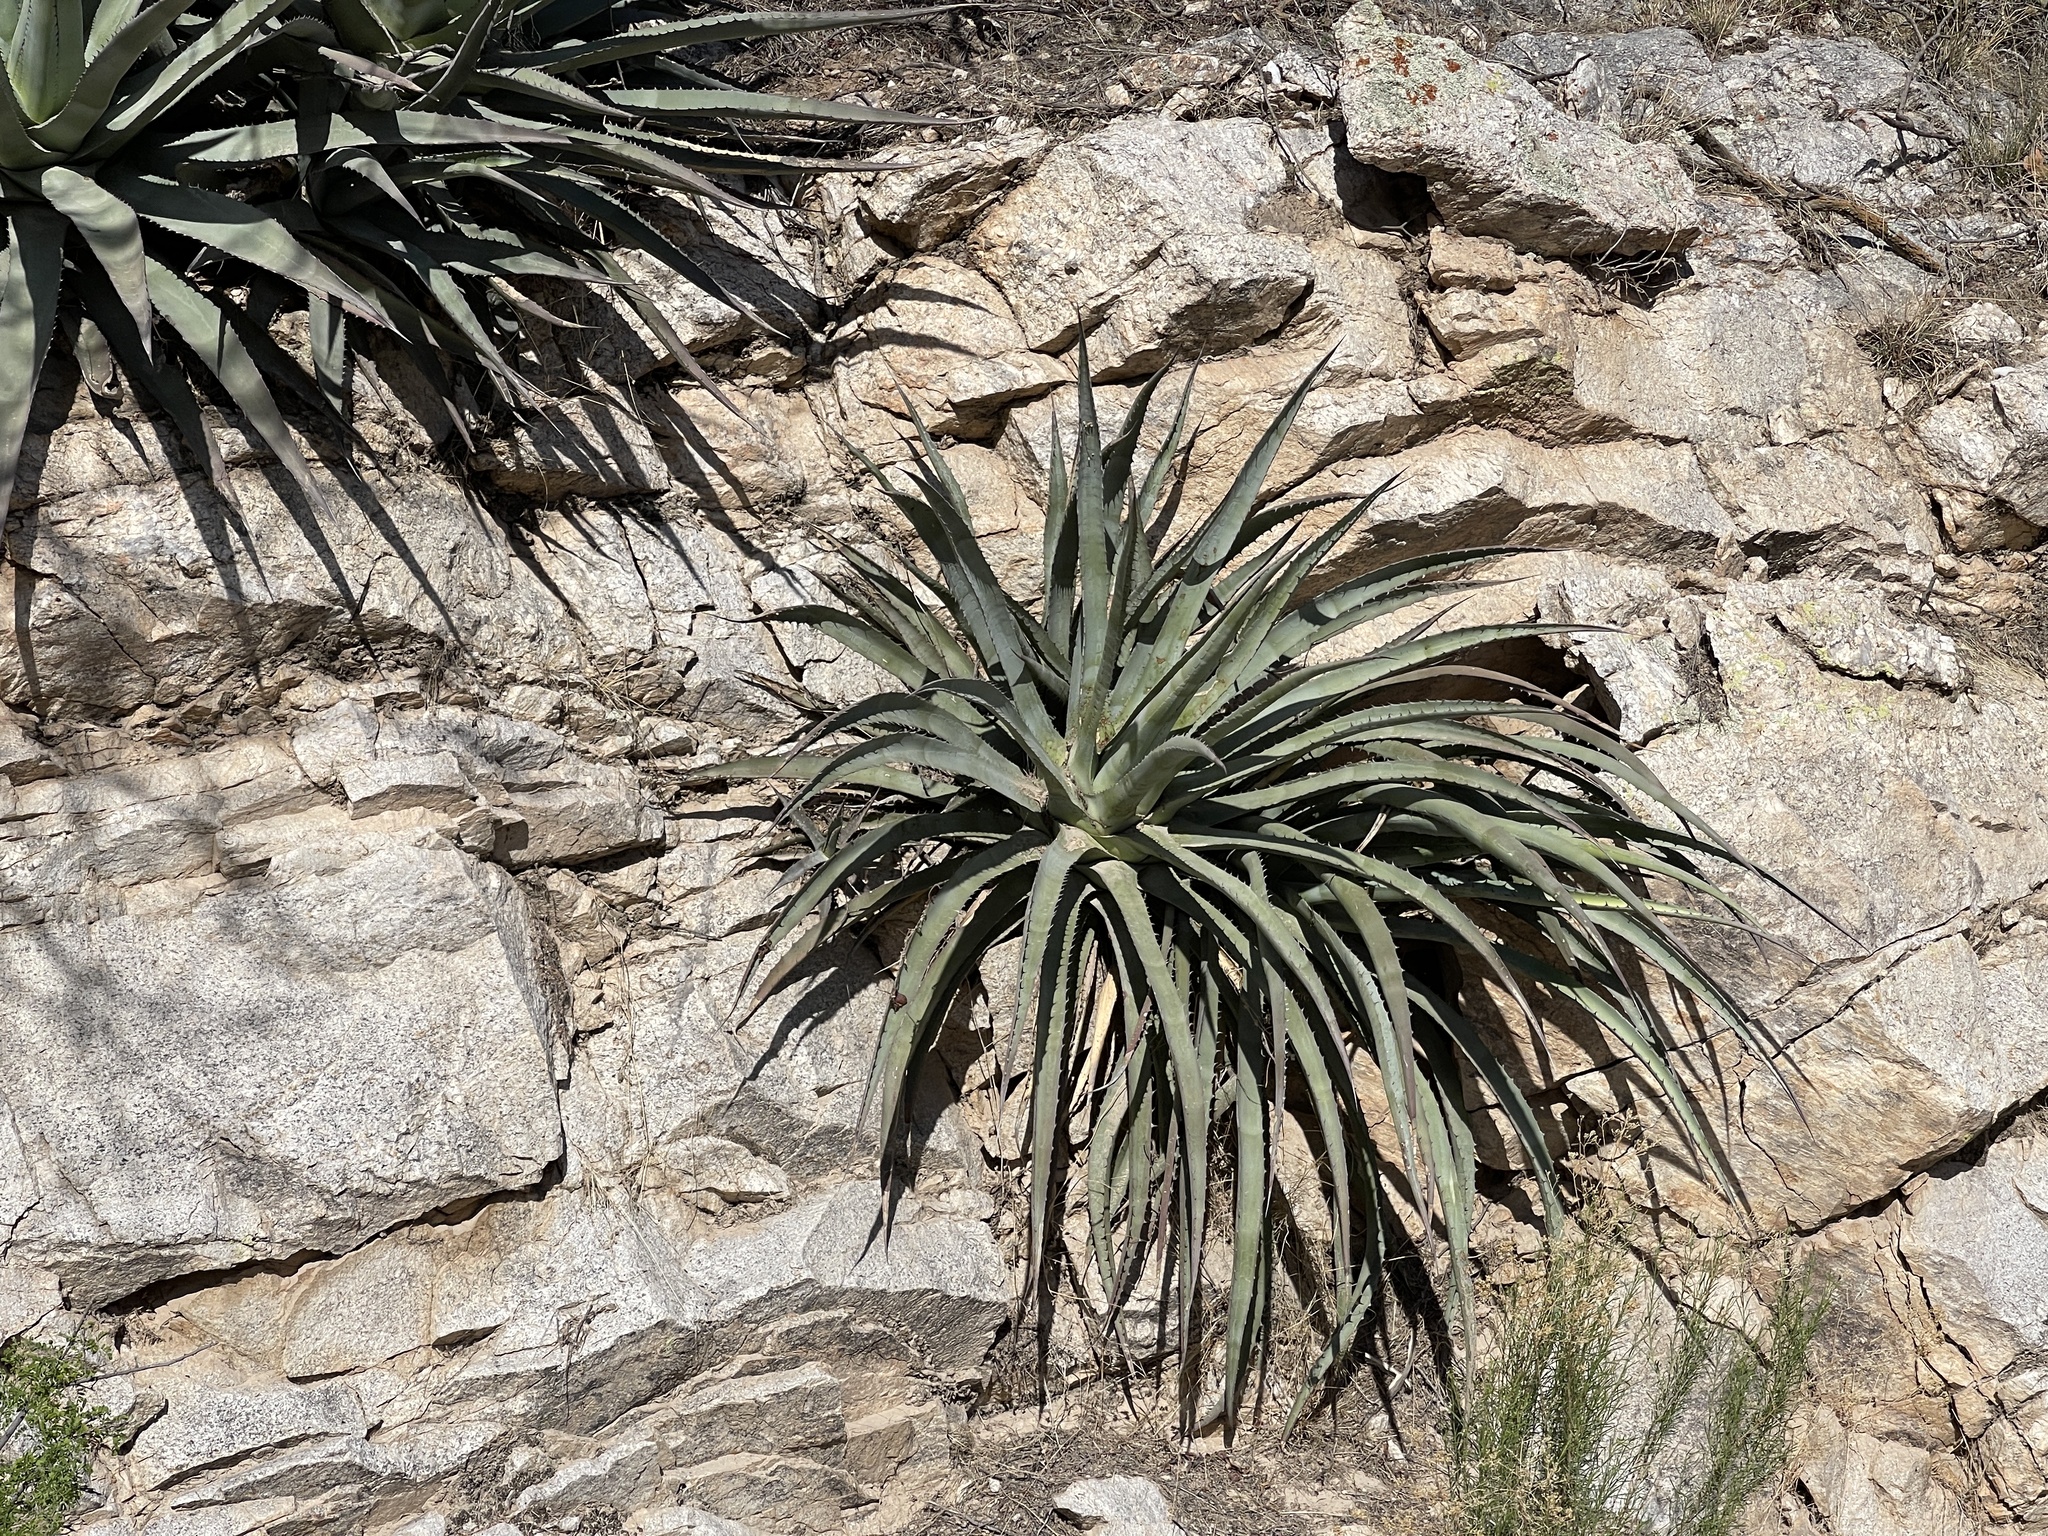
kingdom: Plantae
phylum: Tracheophyta
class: Liliopsida
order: Asparagales
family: Asparagaceae
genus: Agave
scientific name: Agave palmeri
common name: Palmer agave
